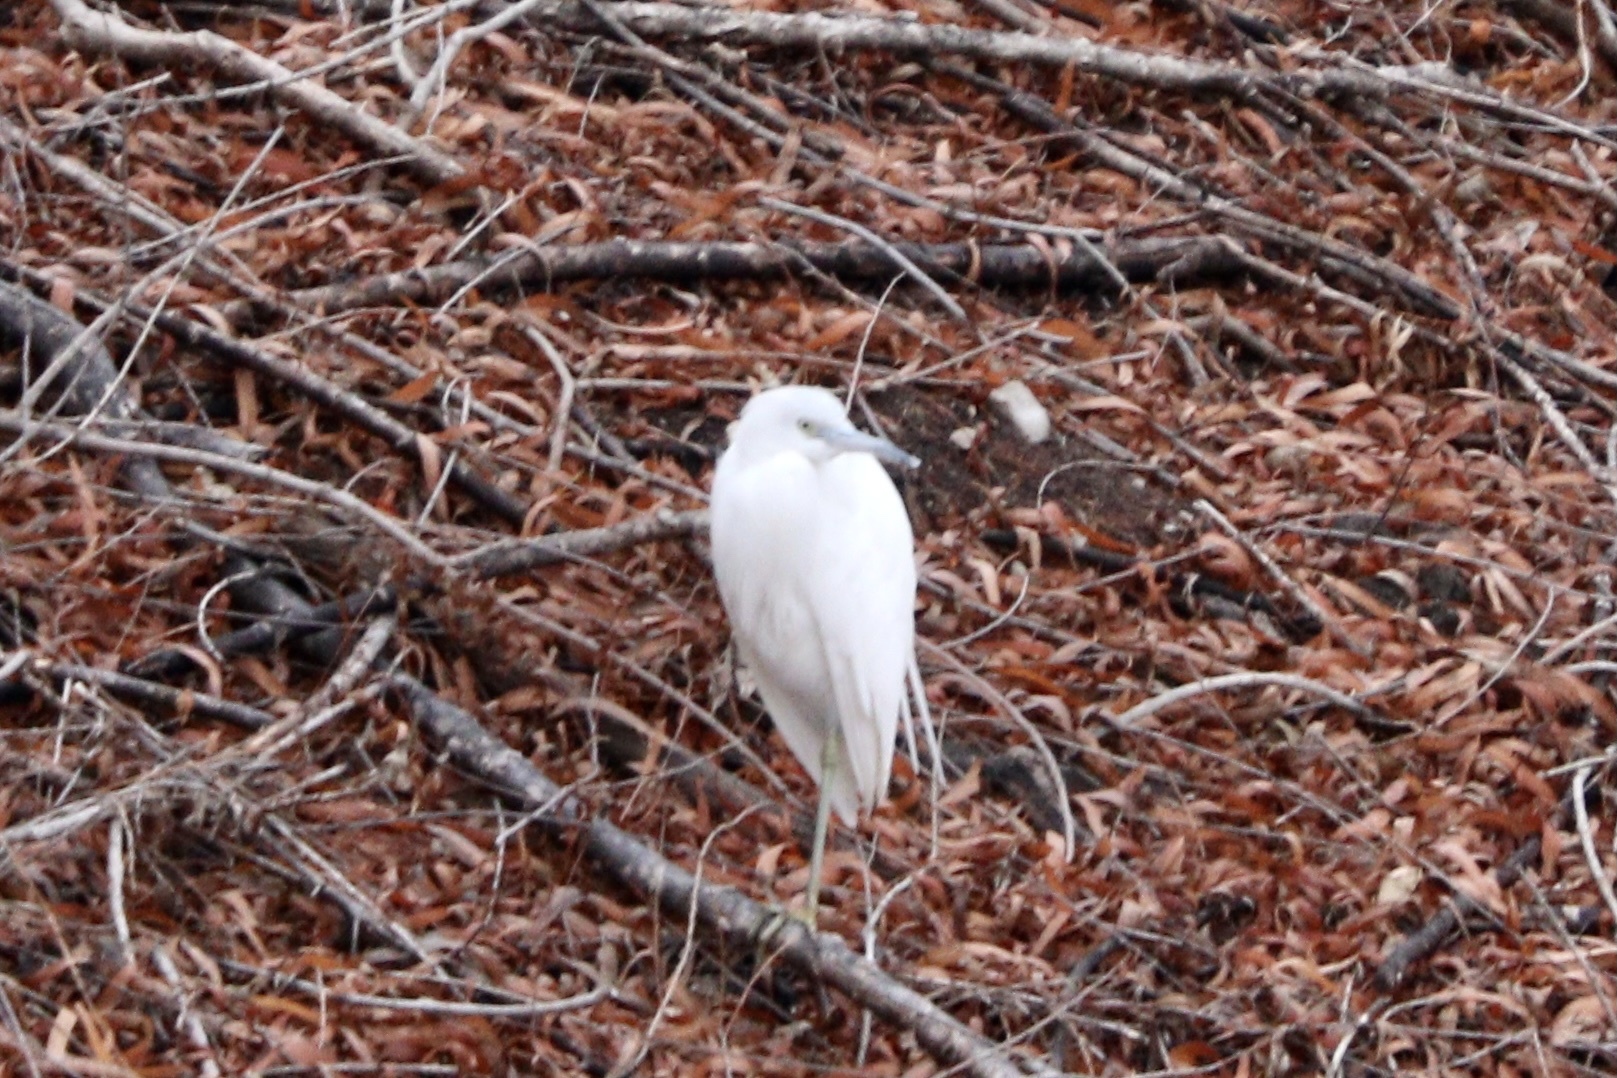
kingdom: Animalia
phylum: Chordata
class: Aves
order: Pelecaniformes
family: Ardeidae
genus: Egretta
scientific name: Egretta caerulea
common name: Little blue heron
